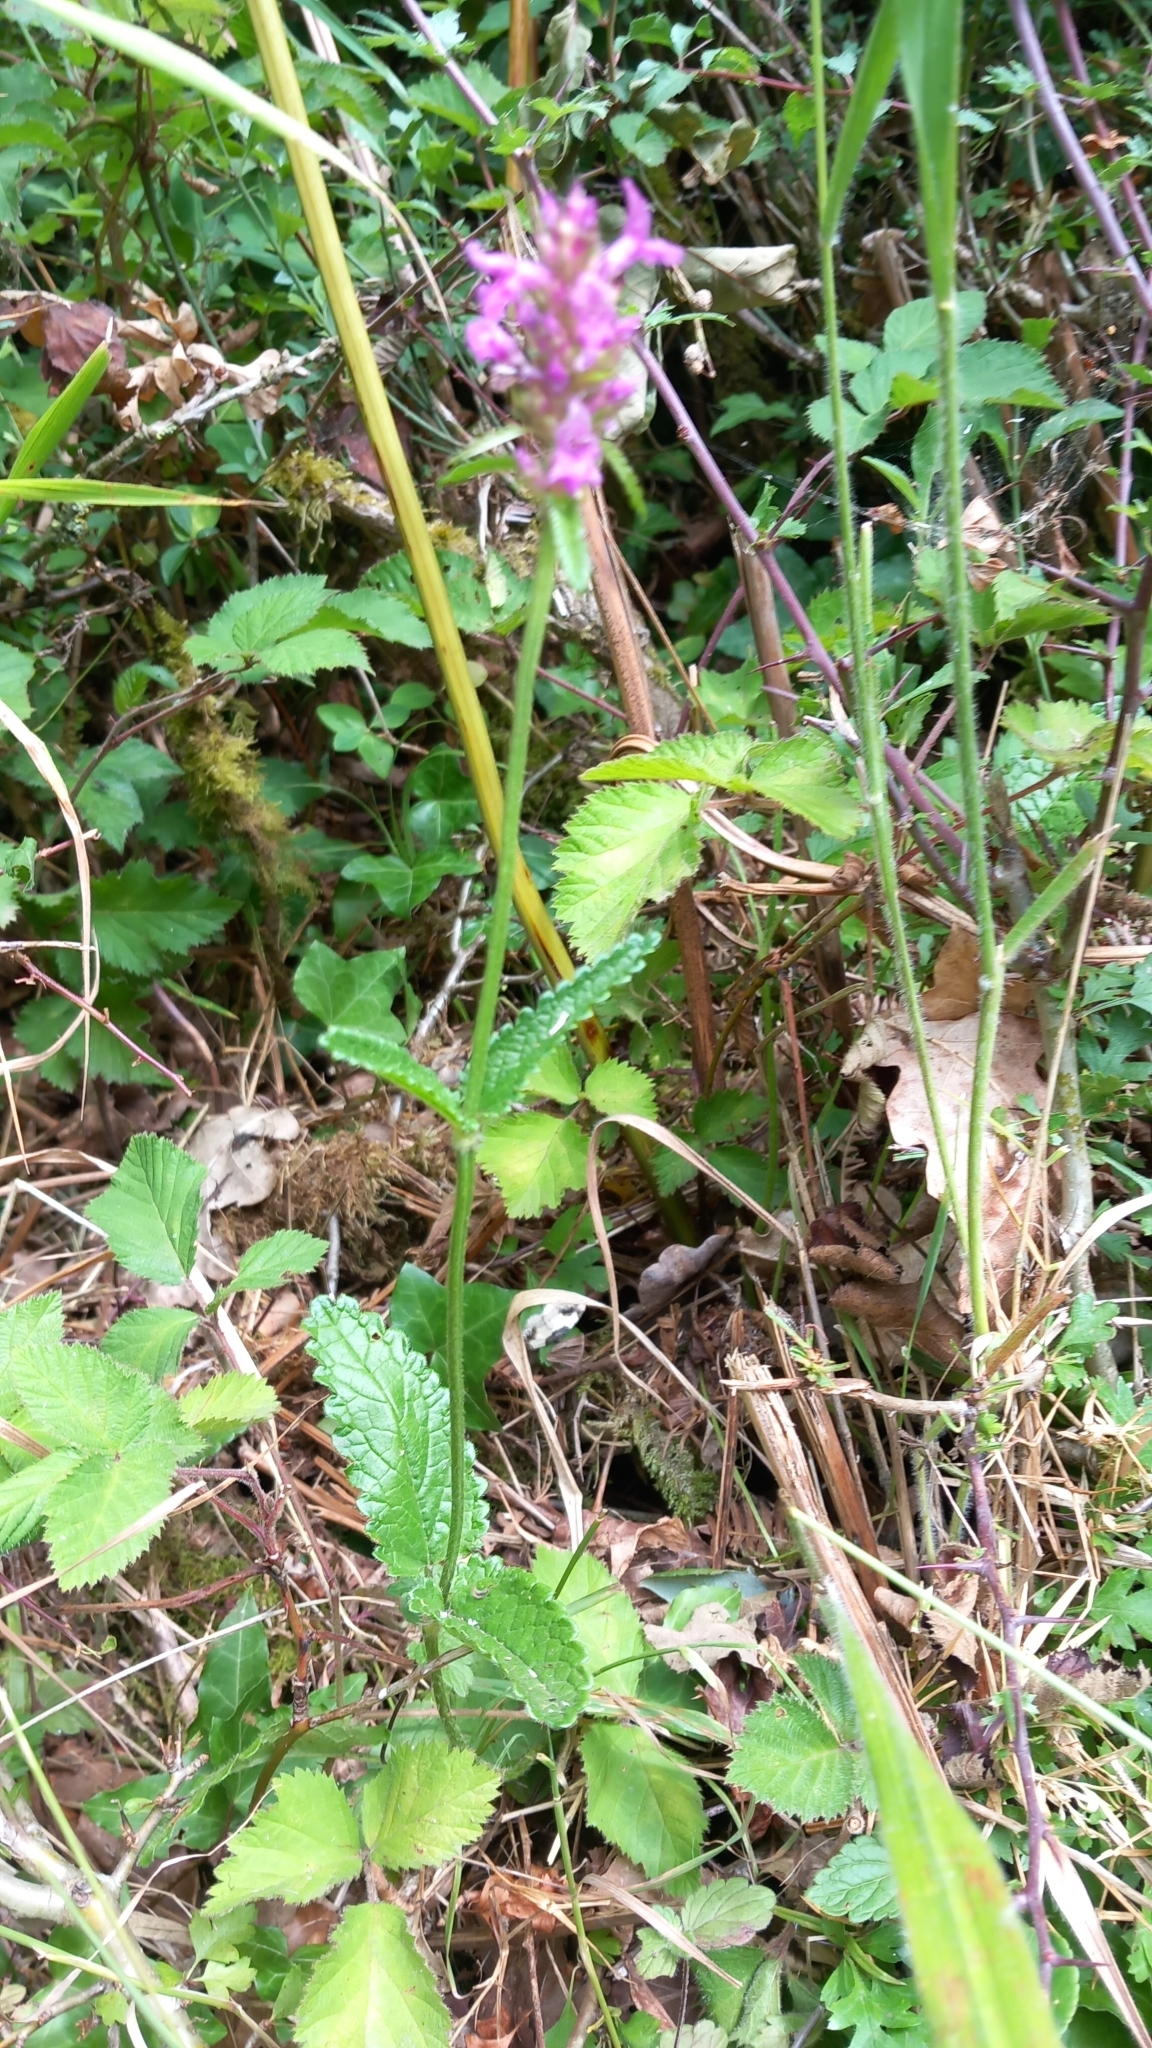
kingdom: Plantae
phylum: Tracheophyta
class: Magnoliopsida
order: Lamiales
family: Lamiaceae
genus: Betonica
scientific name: Betonica officinalis
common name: Bishop's-wort
